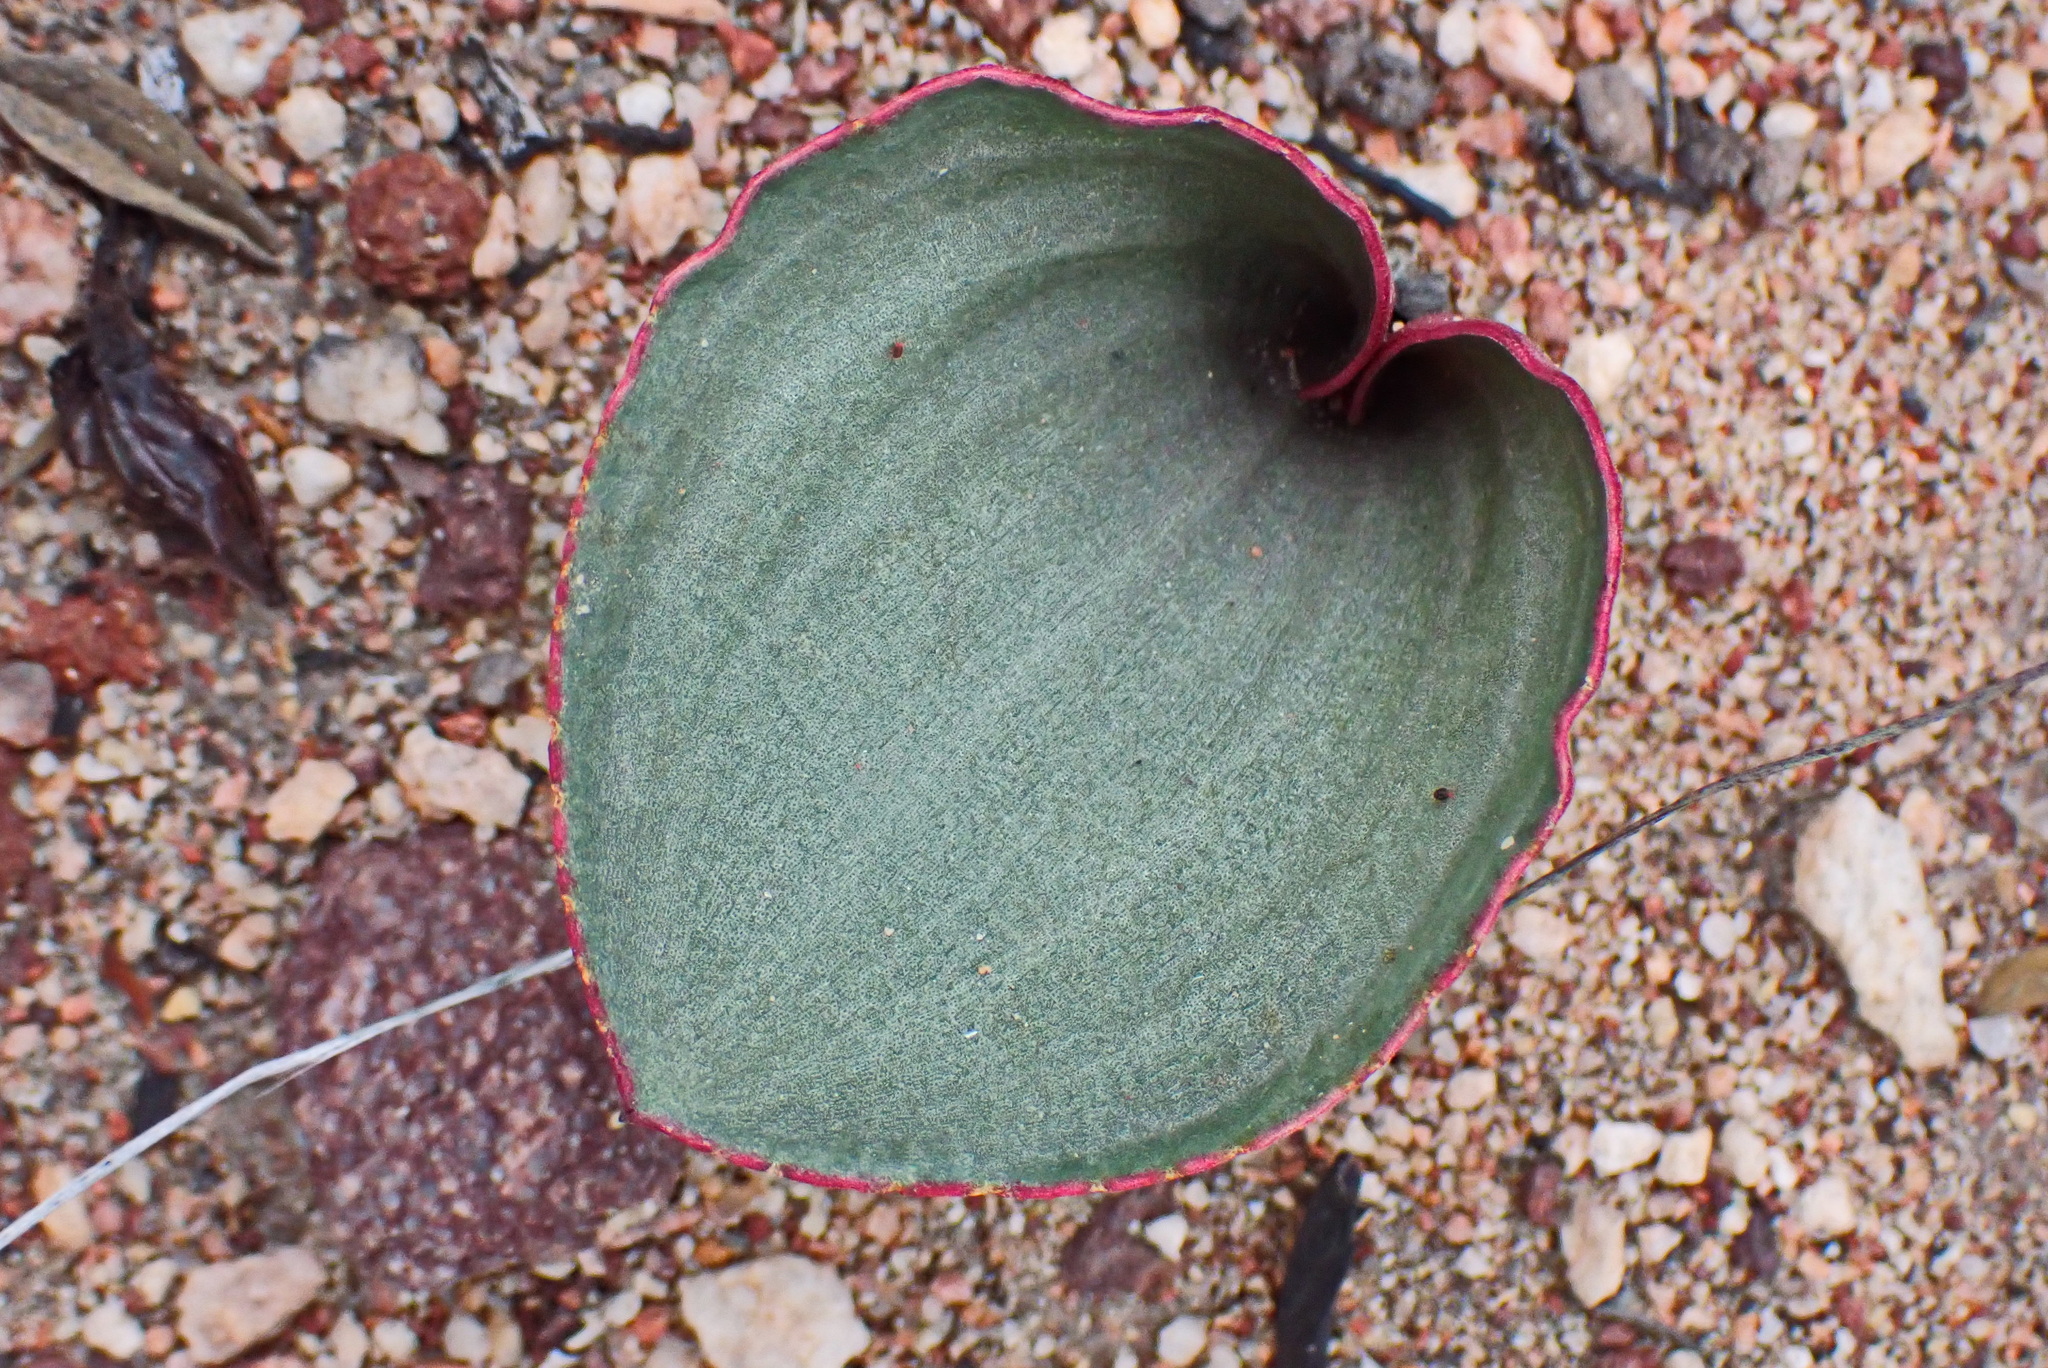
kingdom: Plantae
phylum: Tracheophyta
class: Liliopsida
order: Asparagales
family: Asparagaceae
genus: Eriospermum
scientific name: Eriospermum capense
